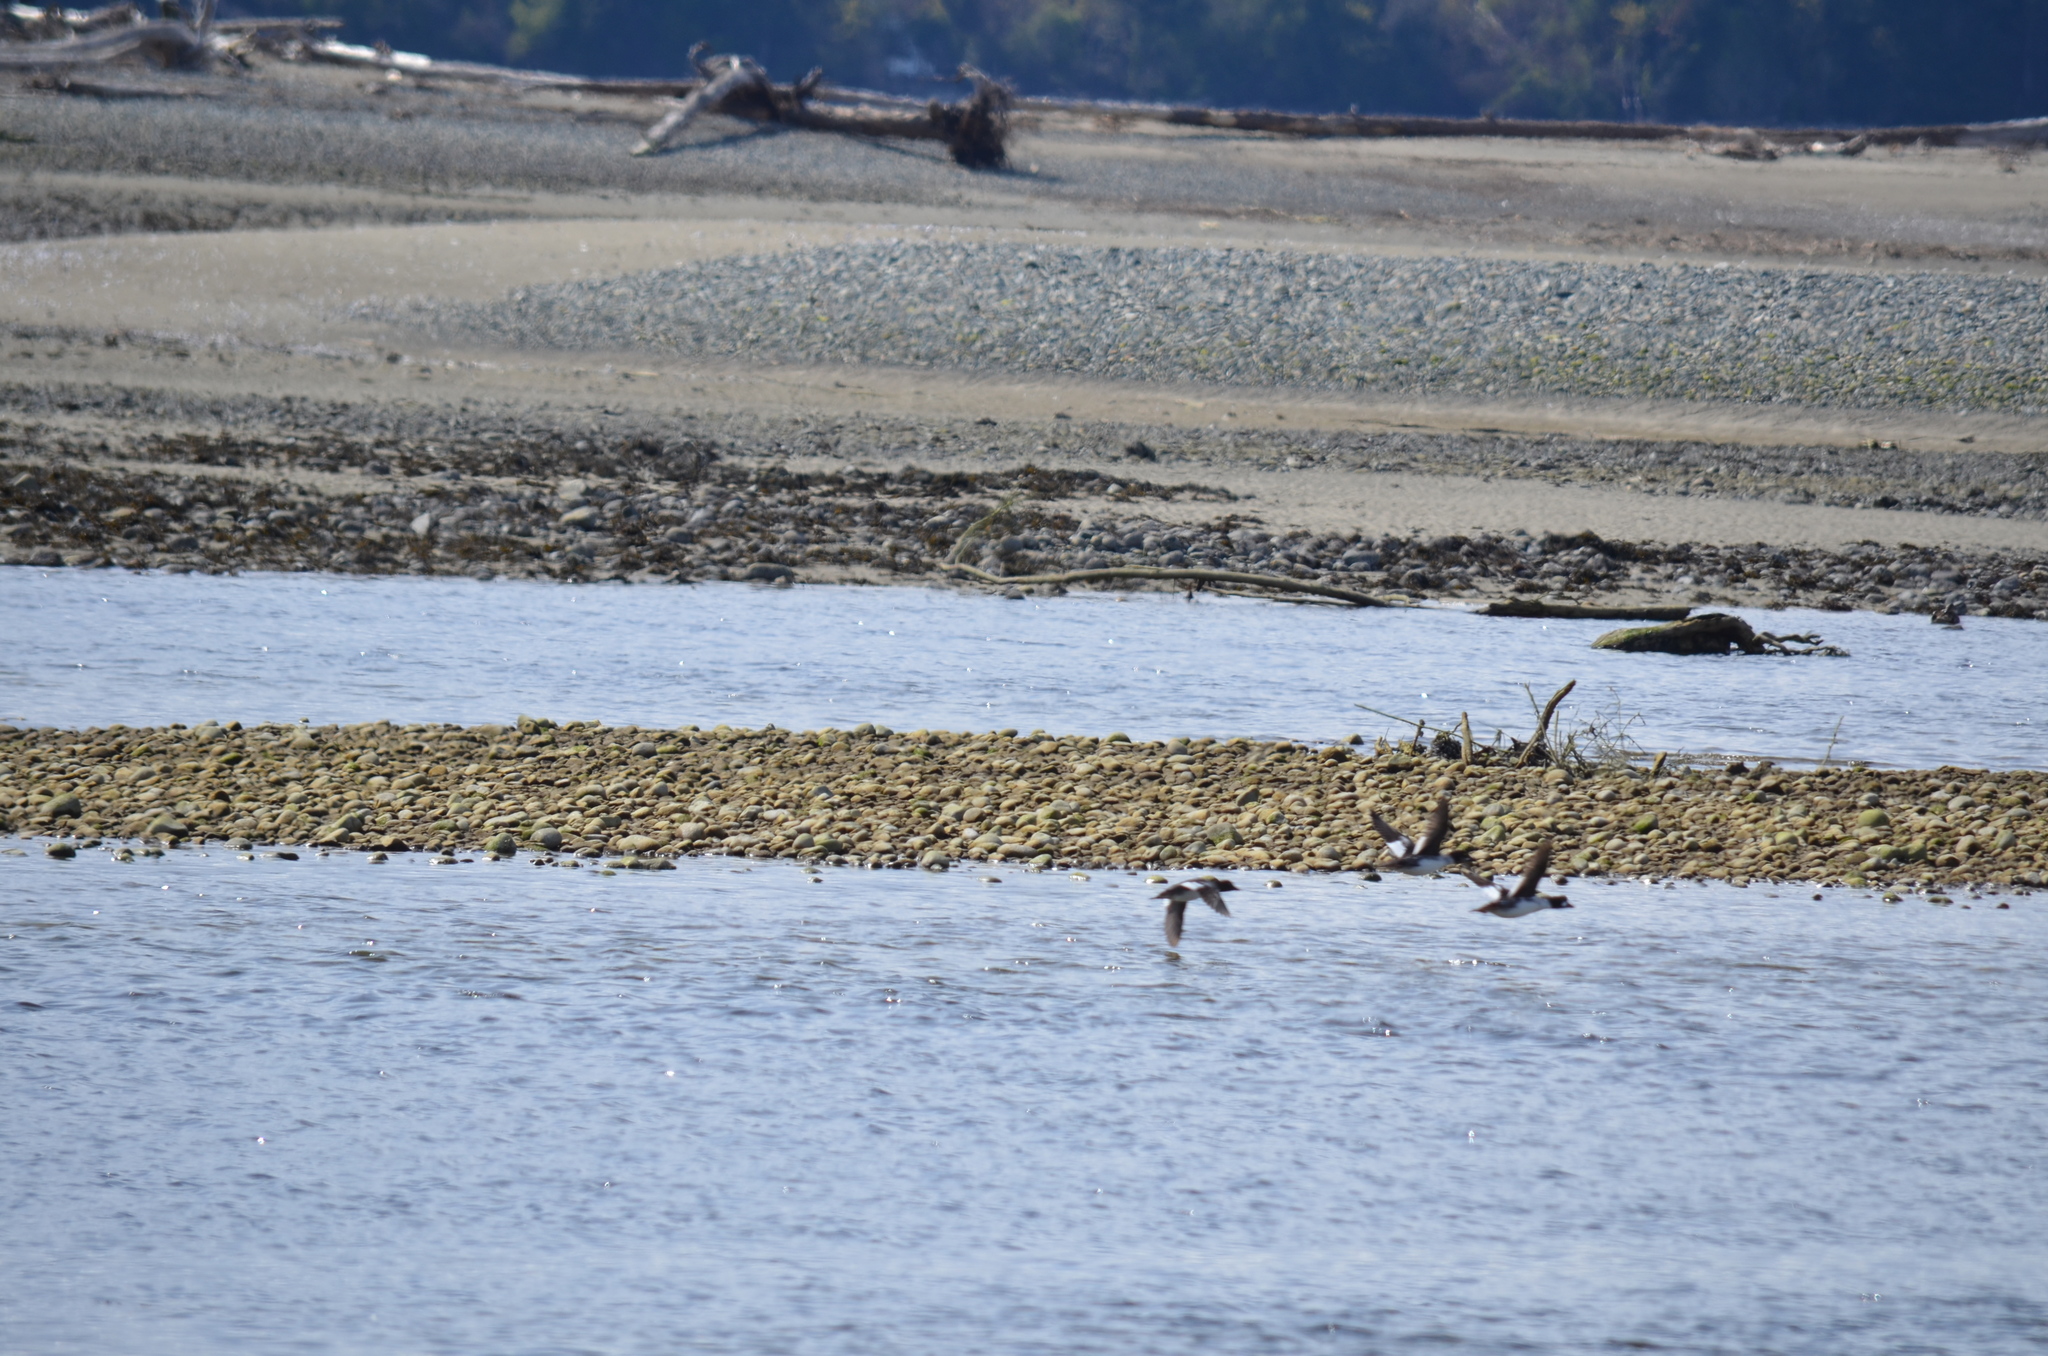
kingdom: Animalia
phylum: Chordata
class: Aves
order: Anseriformes
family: Anatidae
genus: Bucephala
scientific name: Bucephala clangula
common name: Common goldeneye
